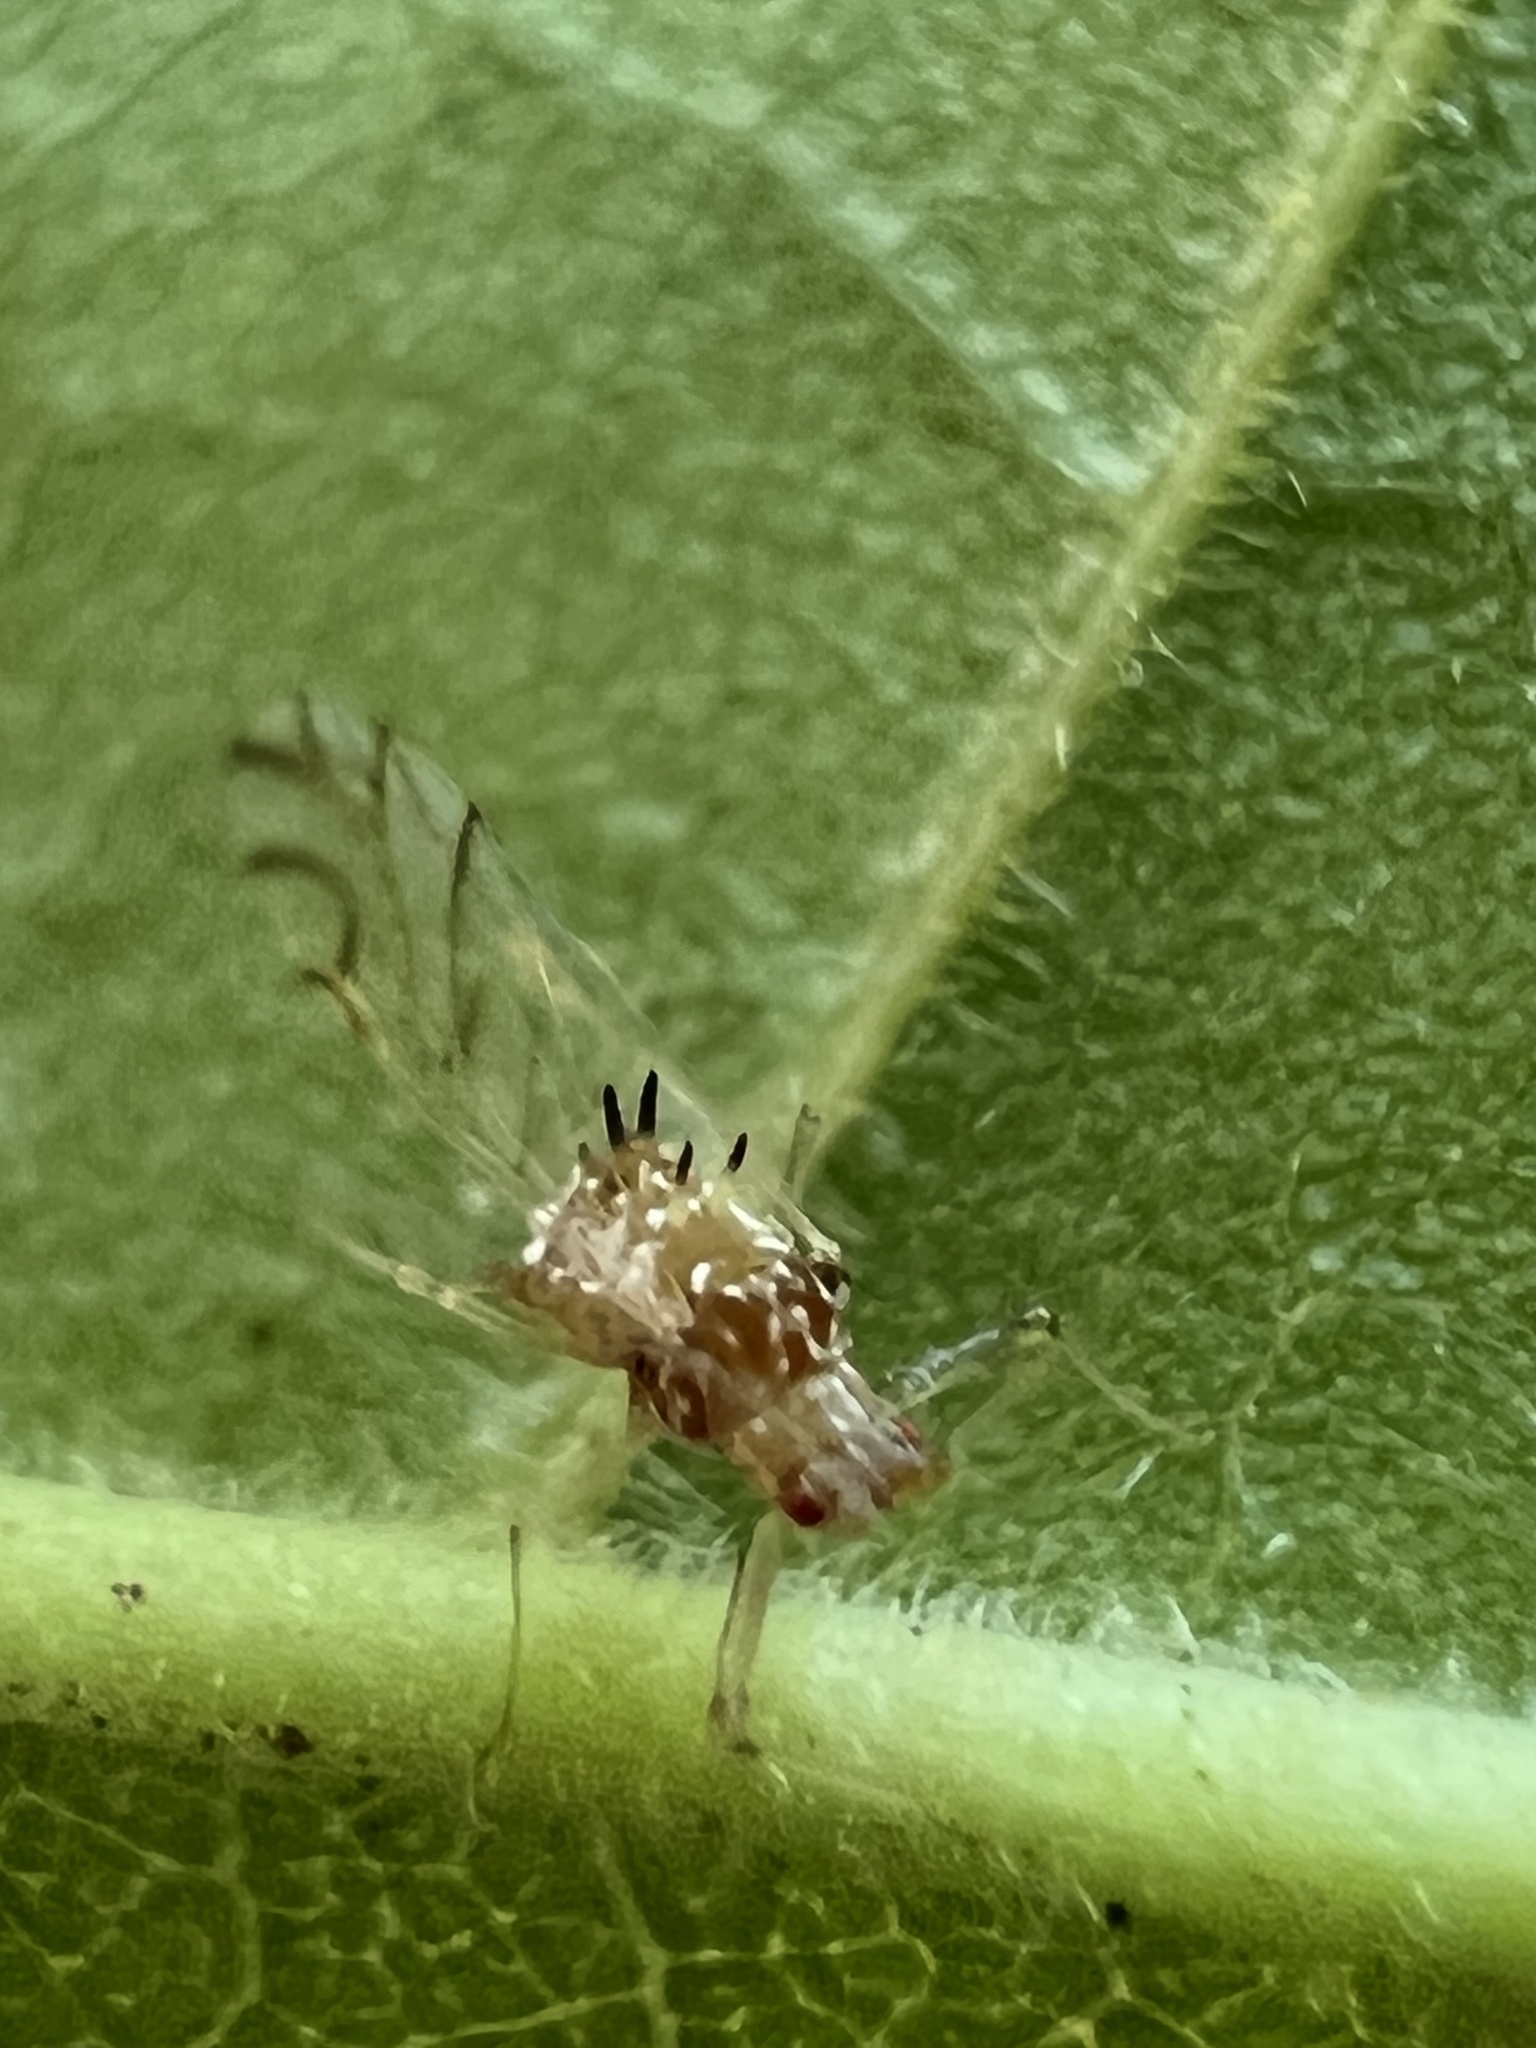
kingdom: Animalia
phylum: Arthropoda
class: Insecta
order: Hemiptera
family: Aphididae
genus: Drepanaphis
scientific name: Drepanaphis acerifoliae
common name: Painted maple aphid
